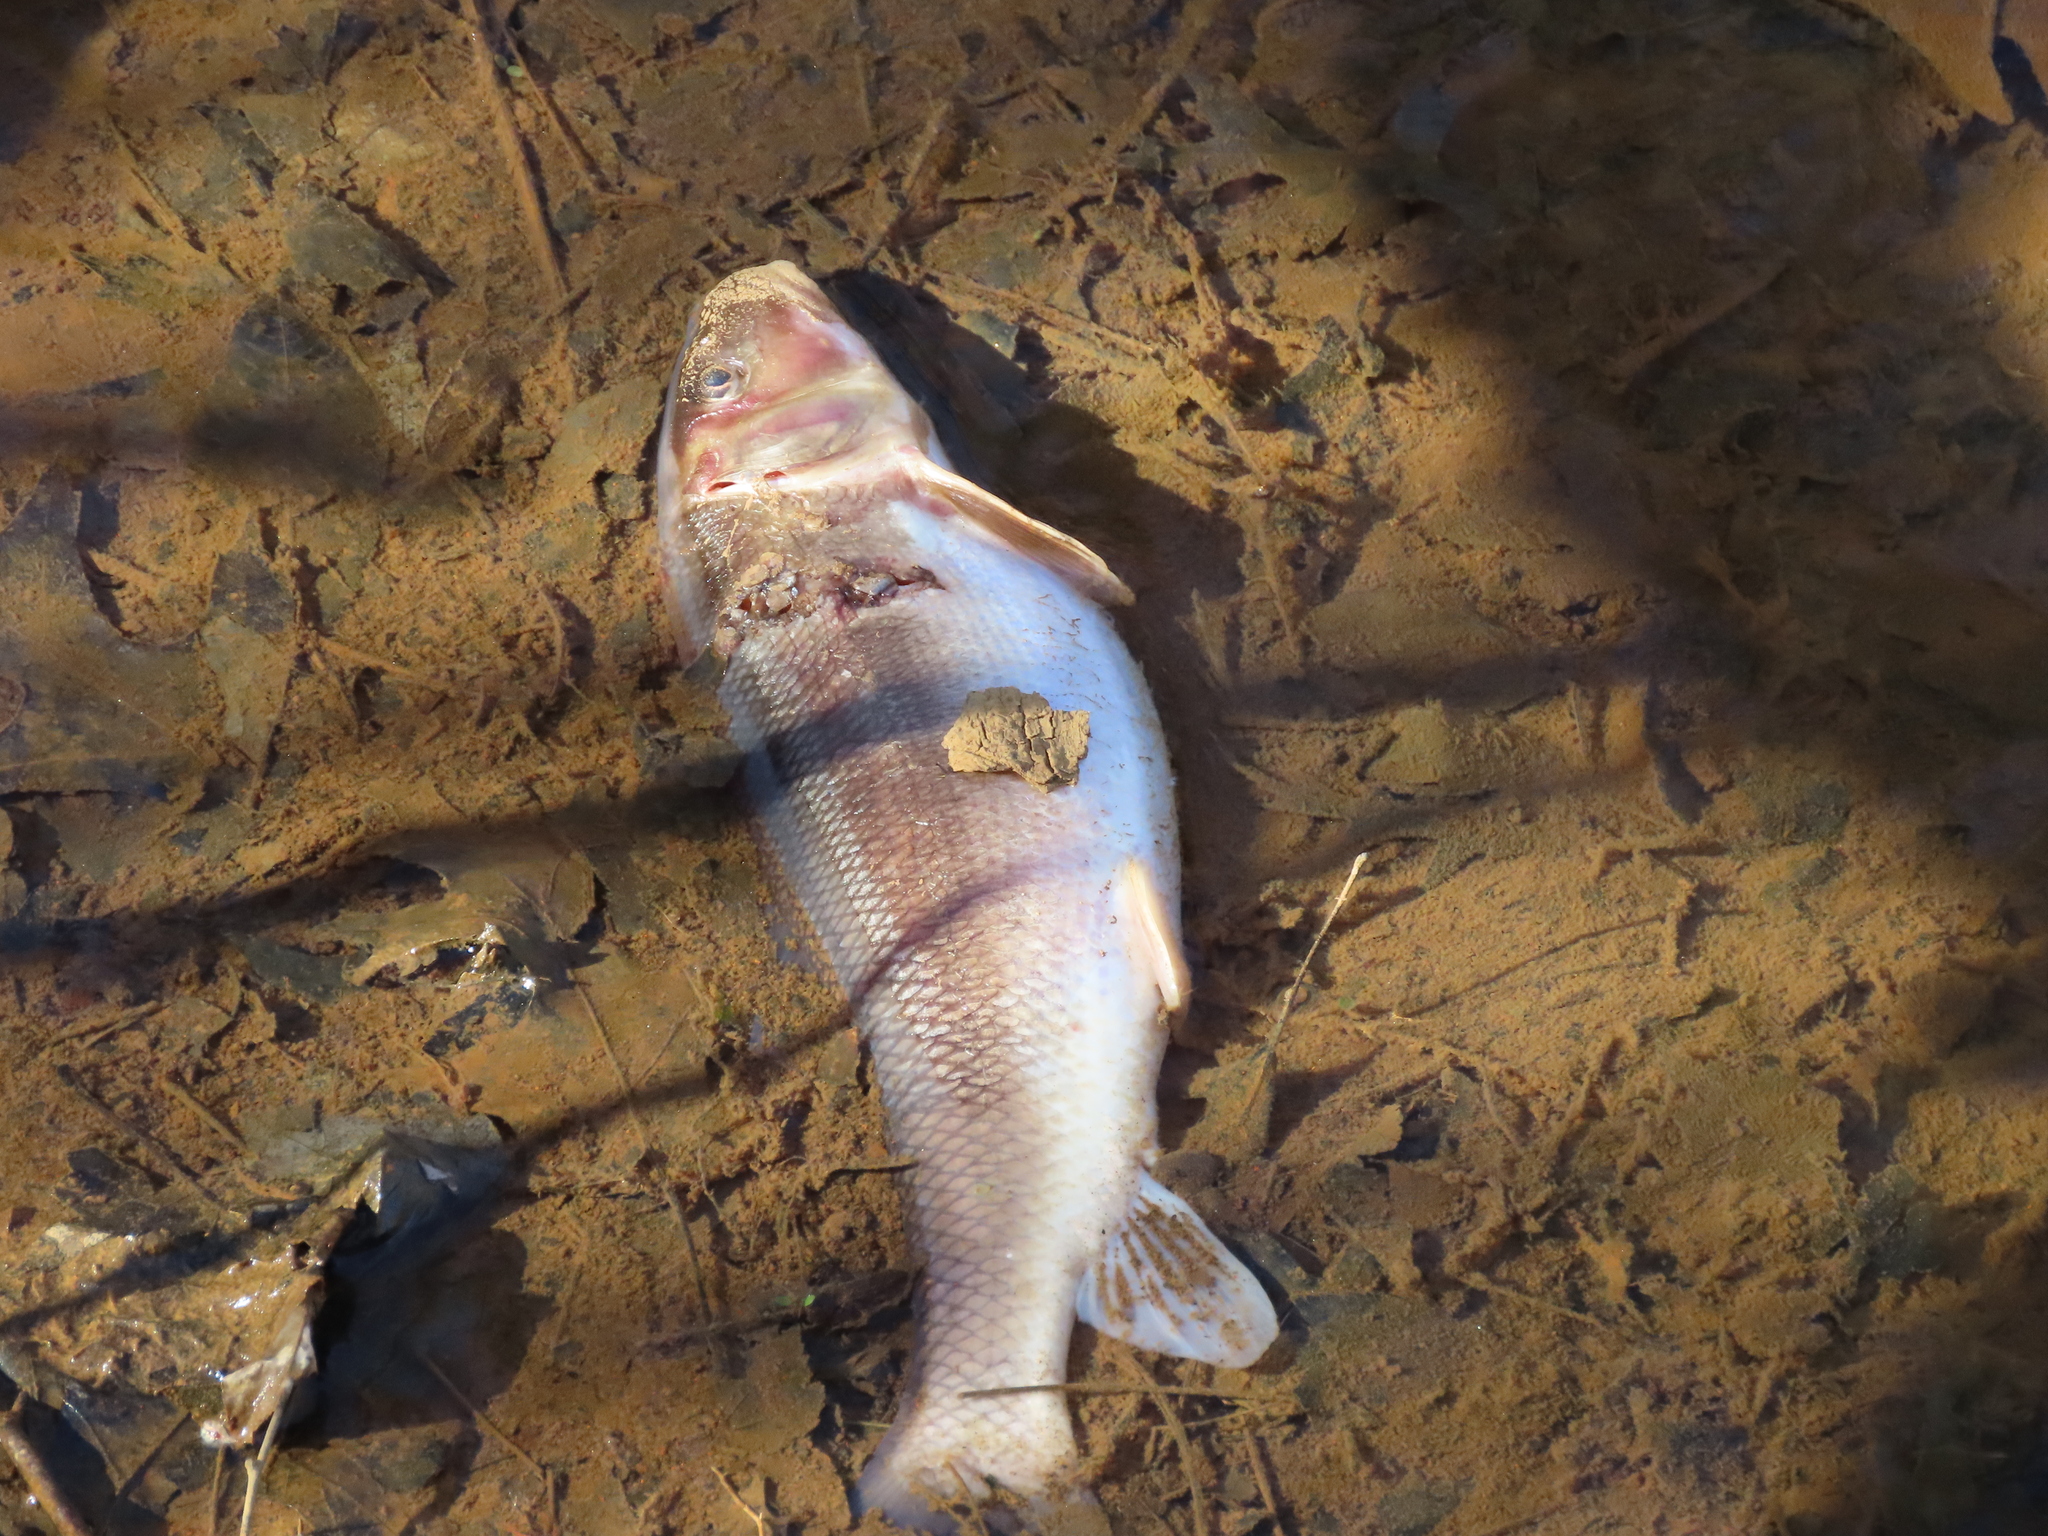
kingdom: Animalia
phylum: Chordata
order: Cypriniformes
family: Catostomidae
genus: Catostomus
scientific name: Catostomus commersonii
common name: White sucker
